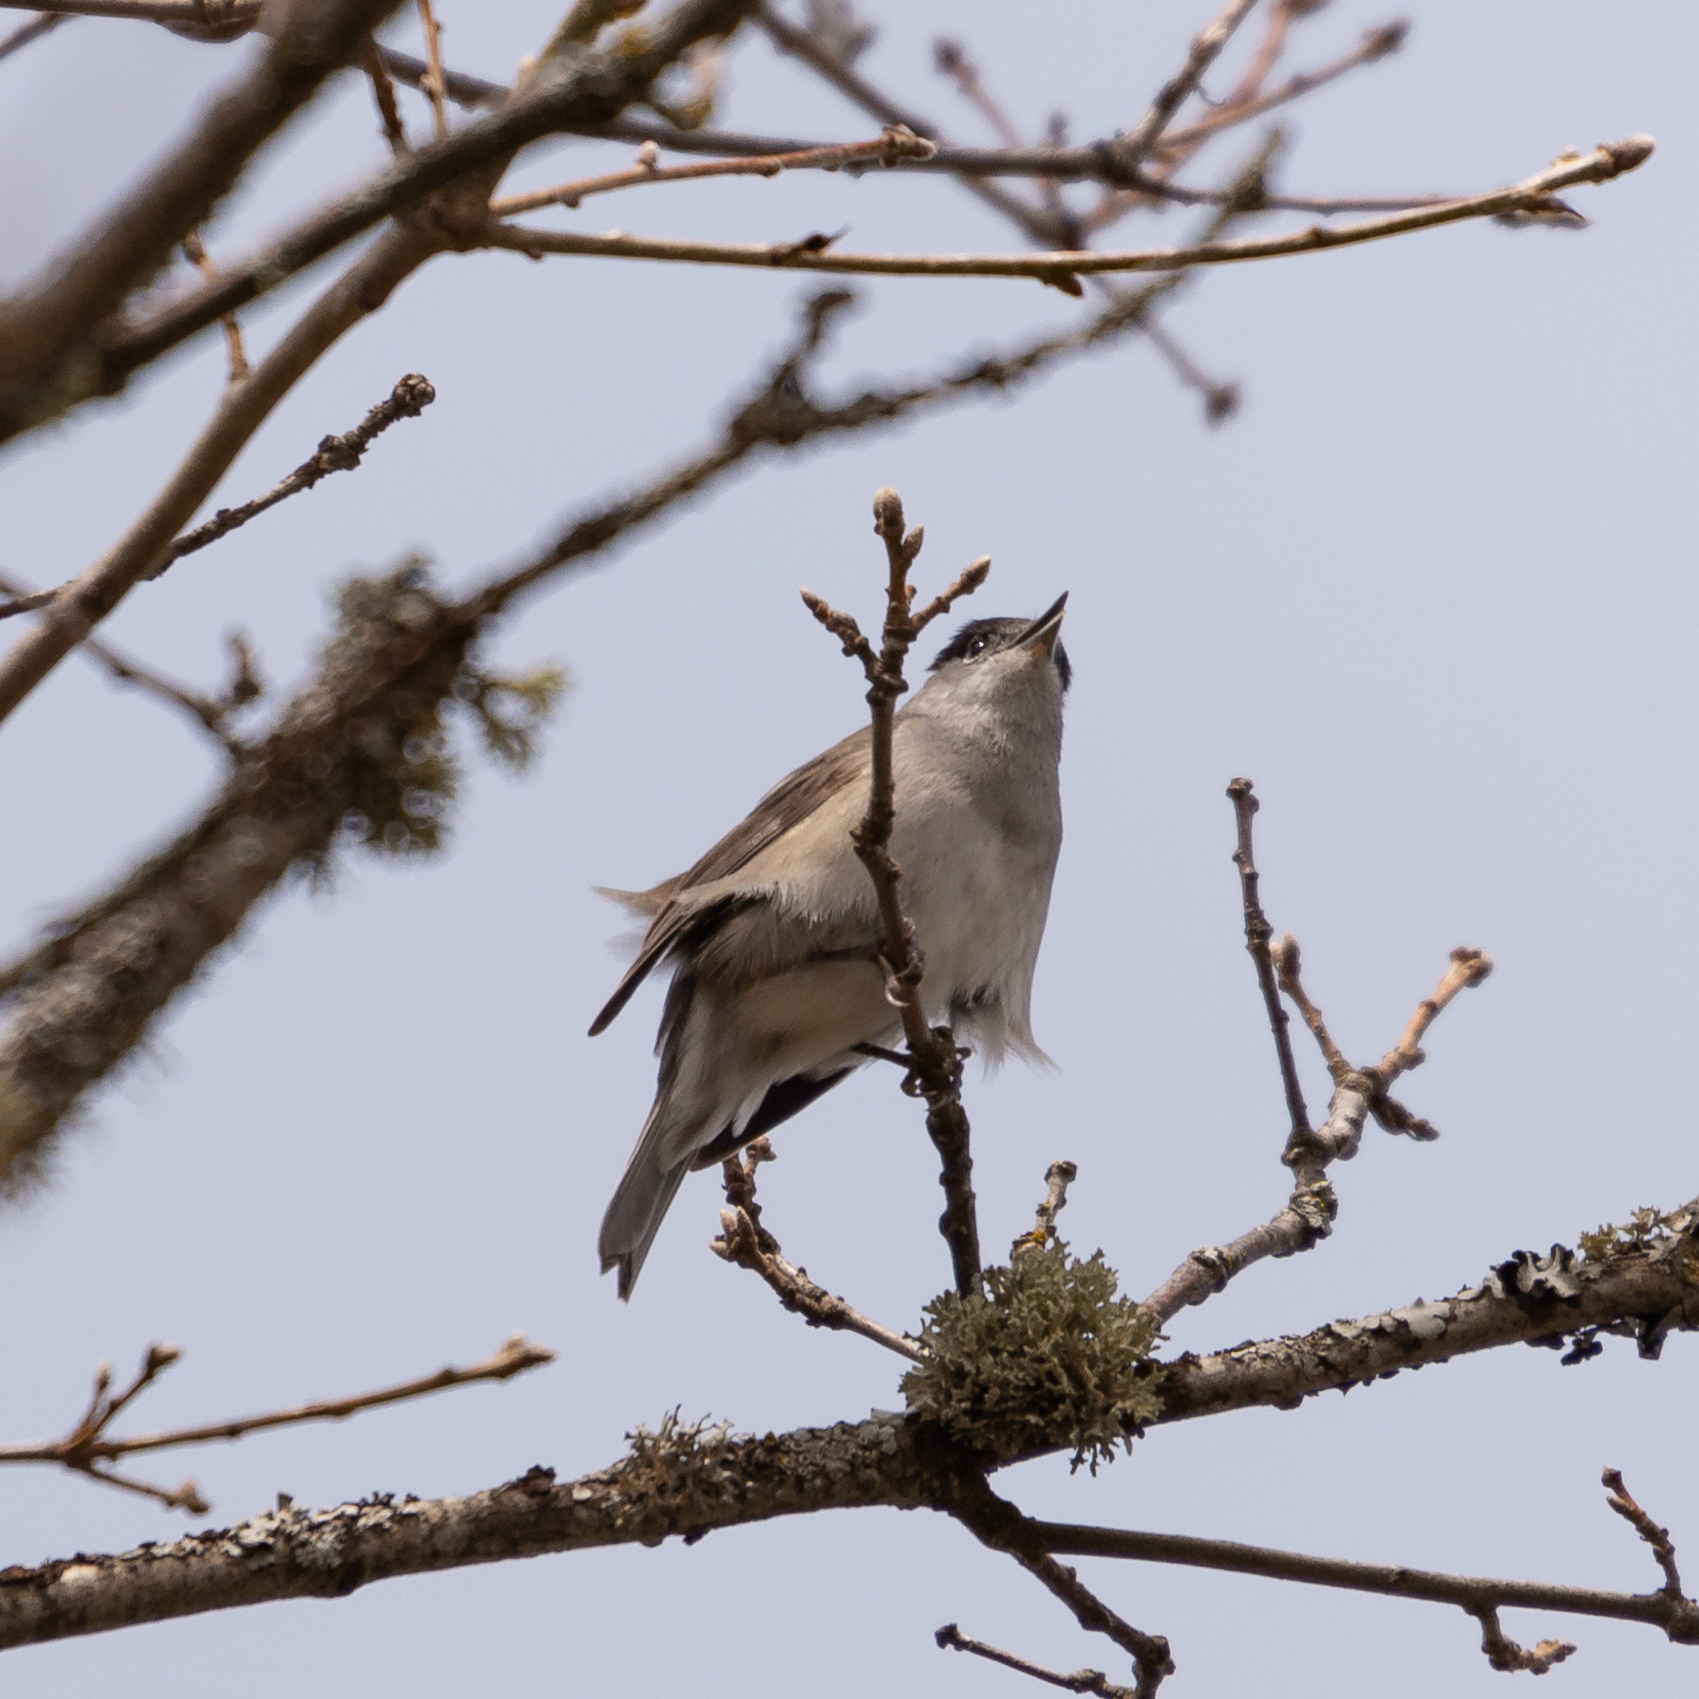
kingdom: Animalia
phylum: Chordata
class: Aves
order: Passeriformes
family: Sylviidae
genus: Sylvia
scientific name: Sylvia atricapilla
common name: Eurasian blackcap
